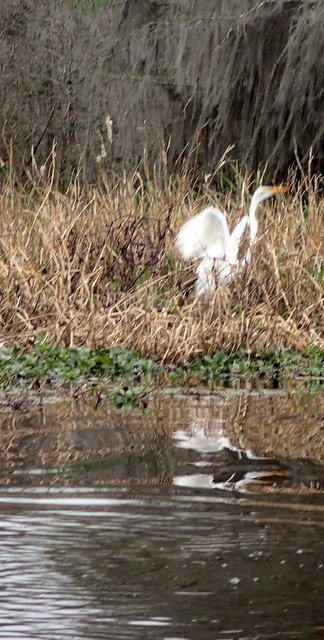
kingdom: Animalia
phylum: Chordata
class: Aves
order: Pelecaniformes
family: Ardeidae
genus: Ardea
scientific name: Ardea alba
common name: Great egret
